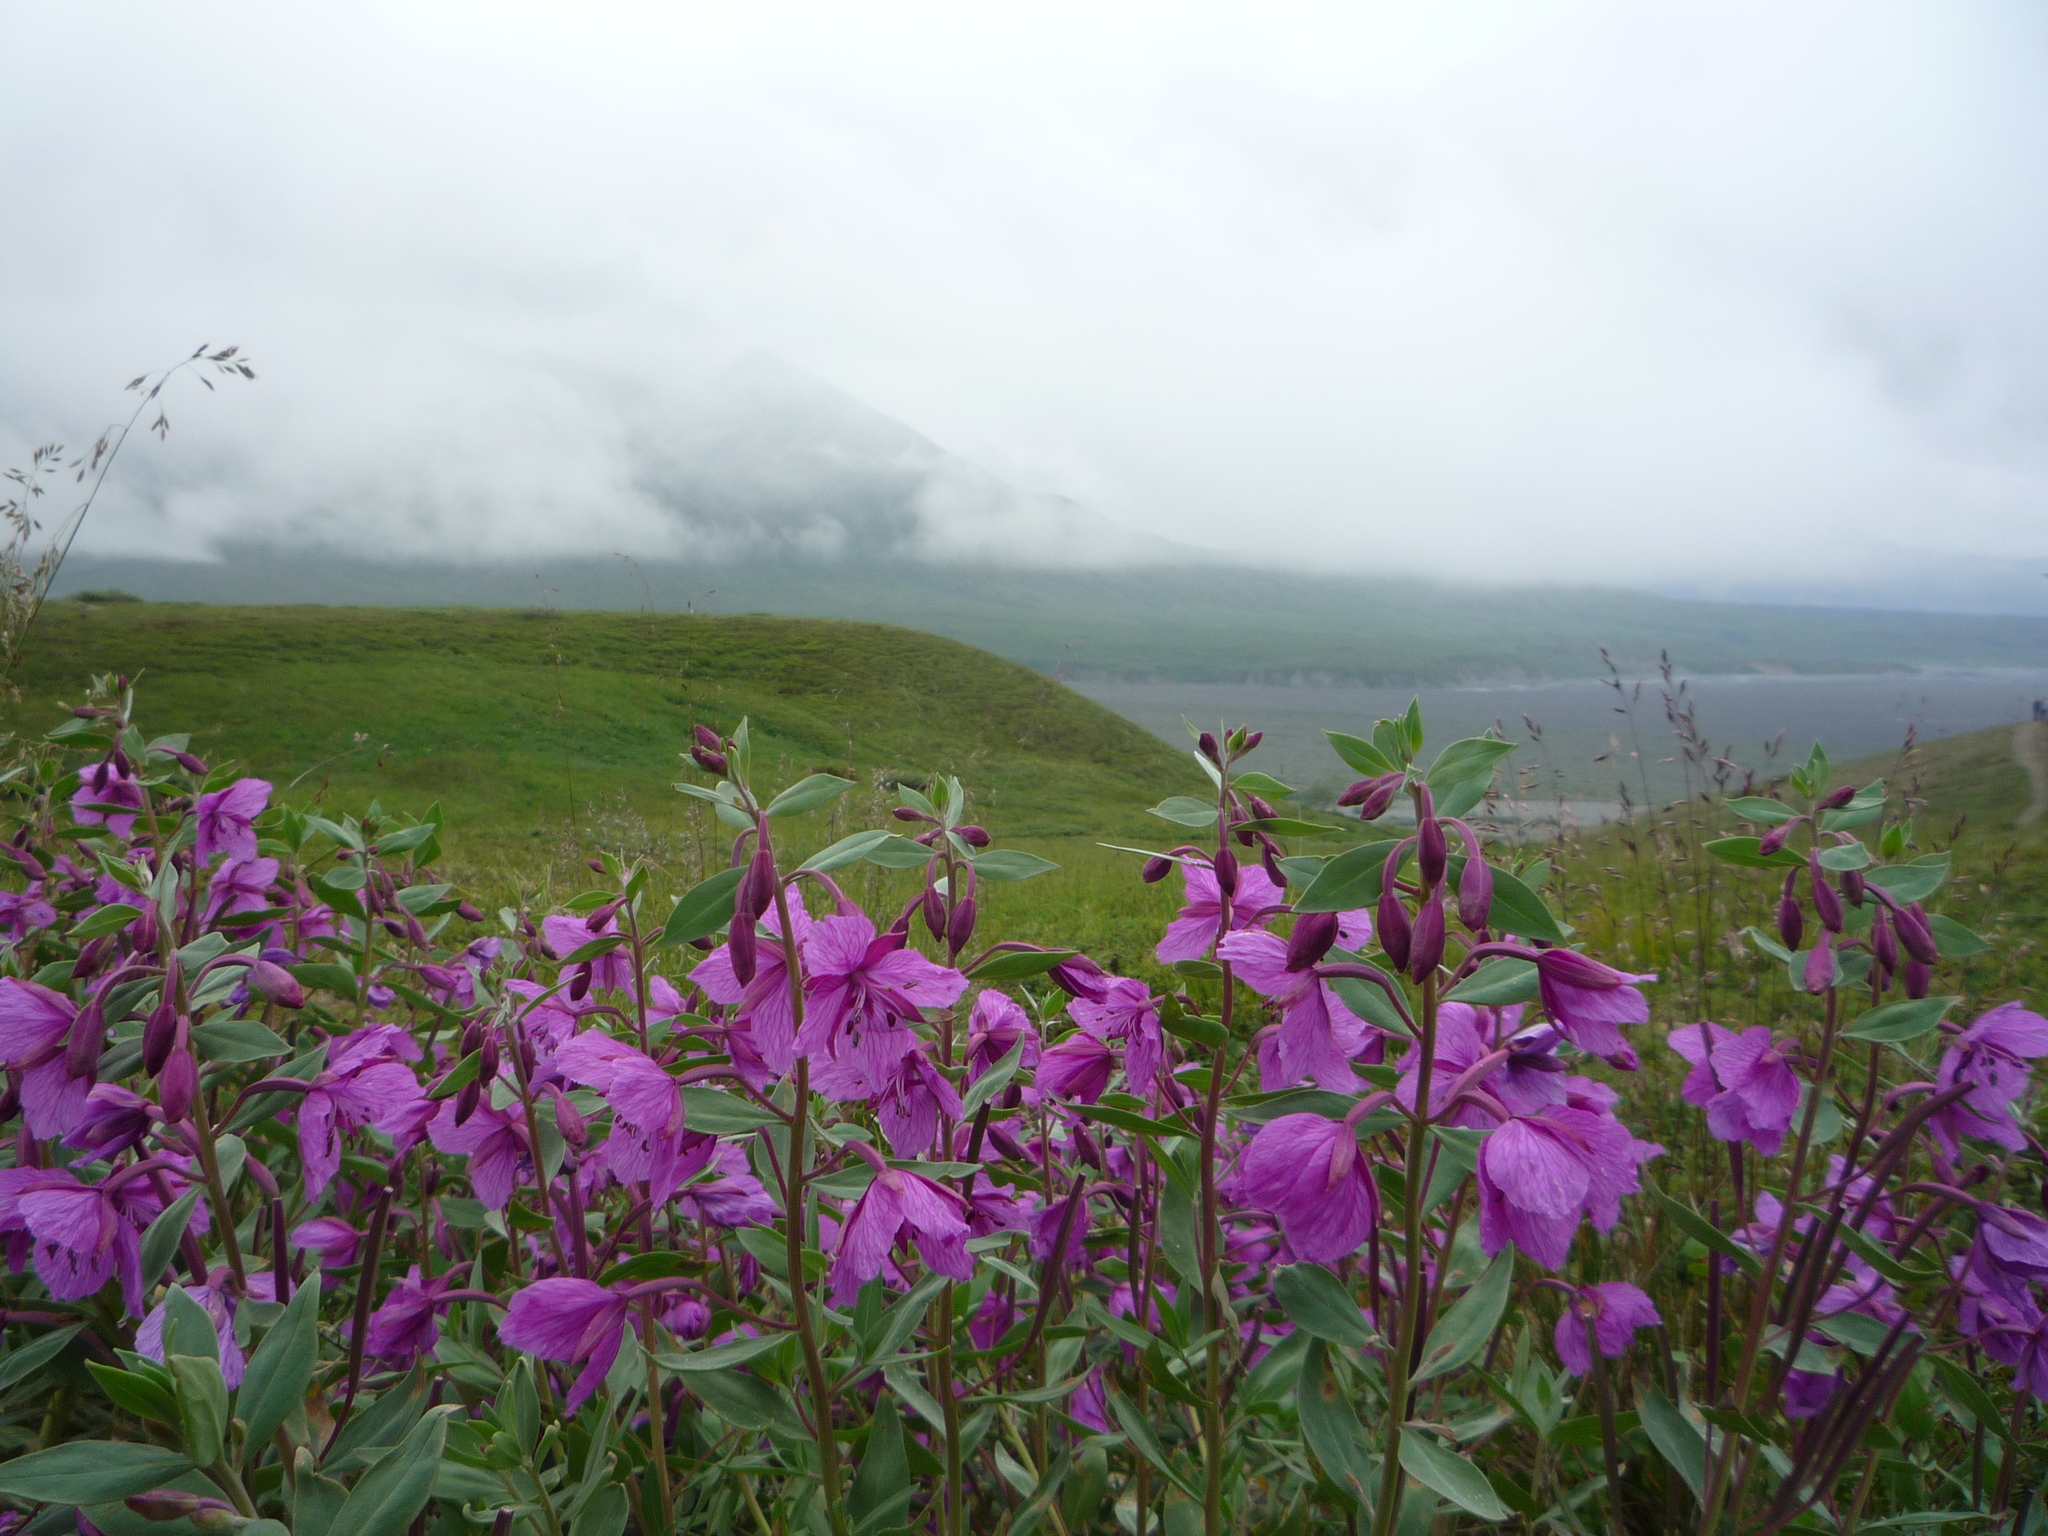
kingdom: Plantae
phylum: Tracheophyta
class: Magnoliopsida
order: Myrtales
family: Onagraceae
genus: Chamaenerion
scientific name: Chamaenerion latifolium
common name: Dwarf fireweed
